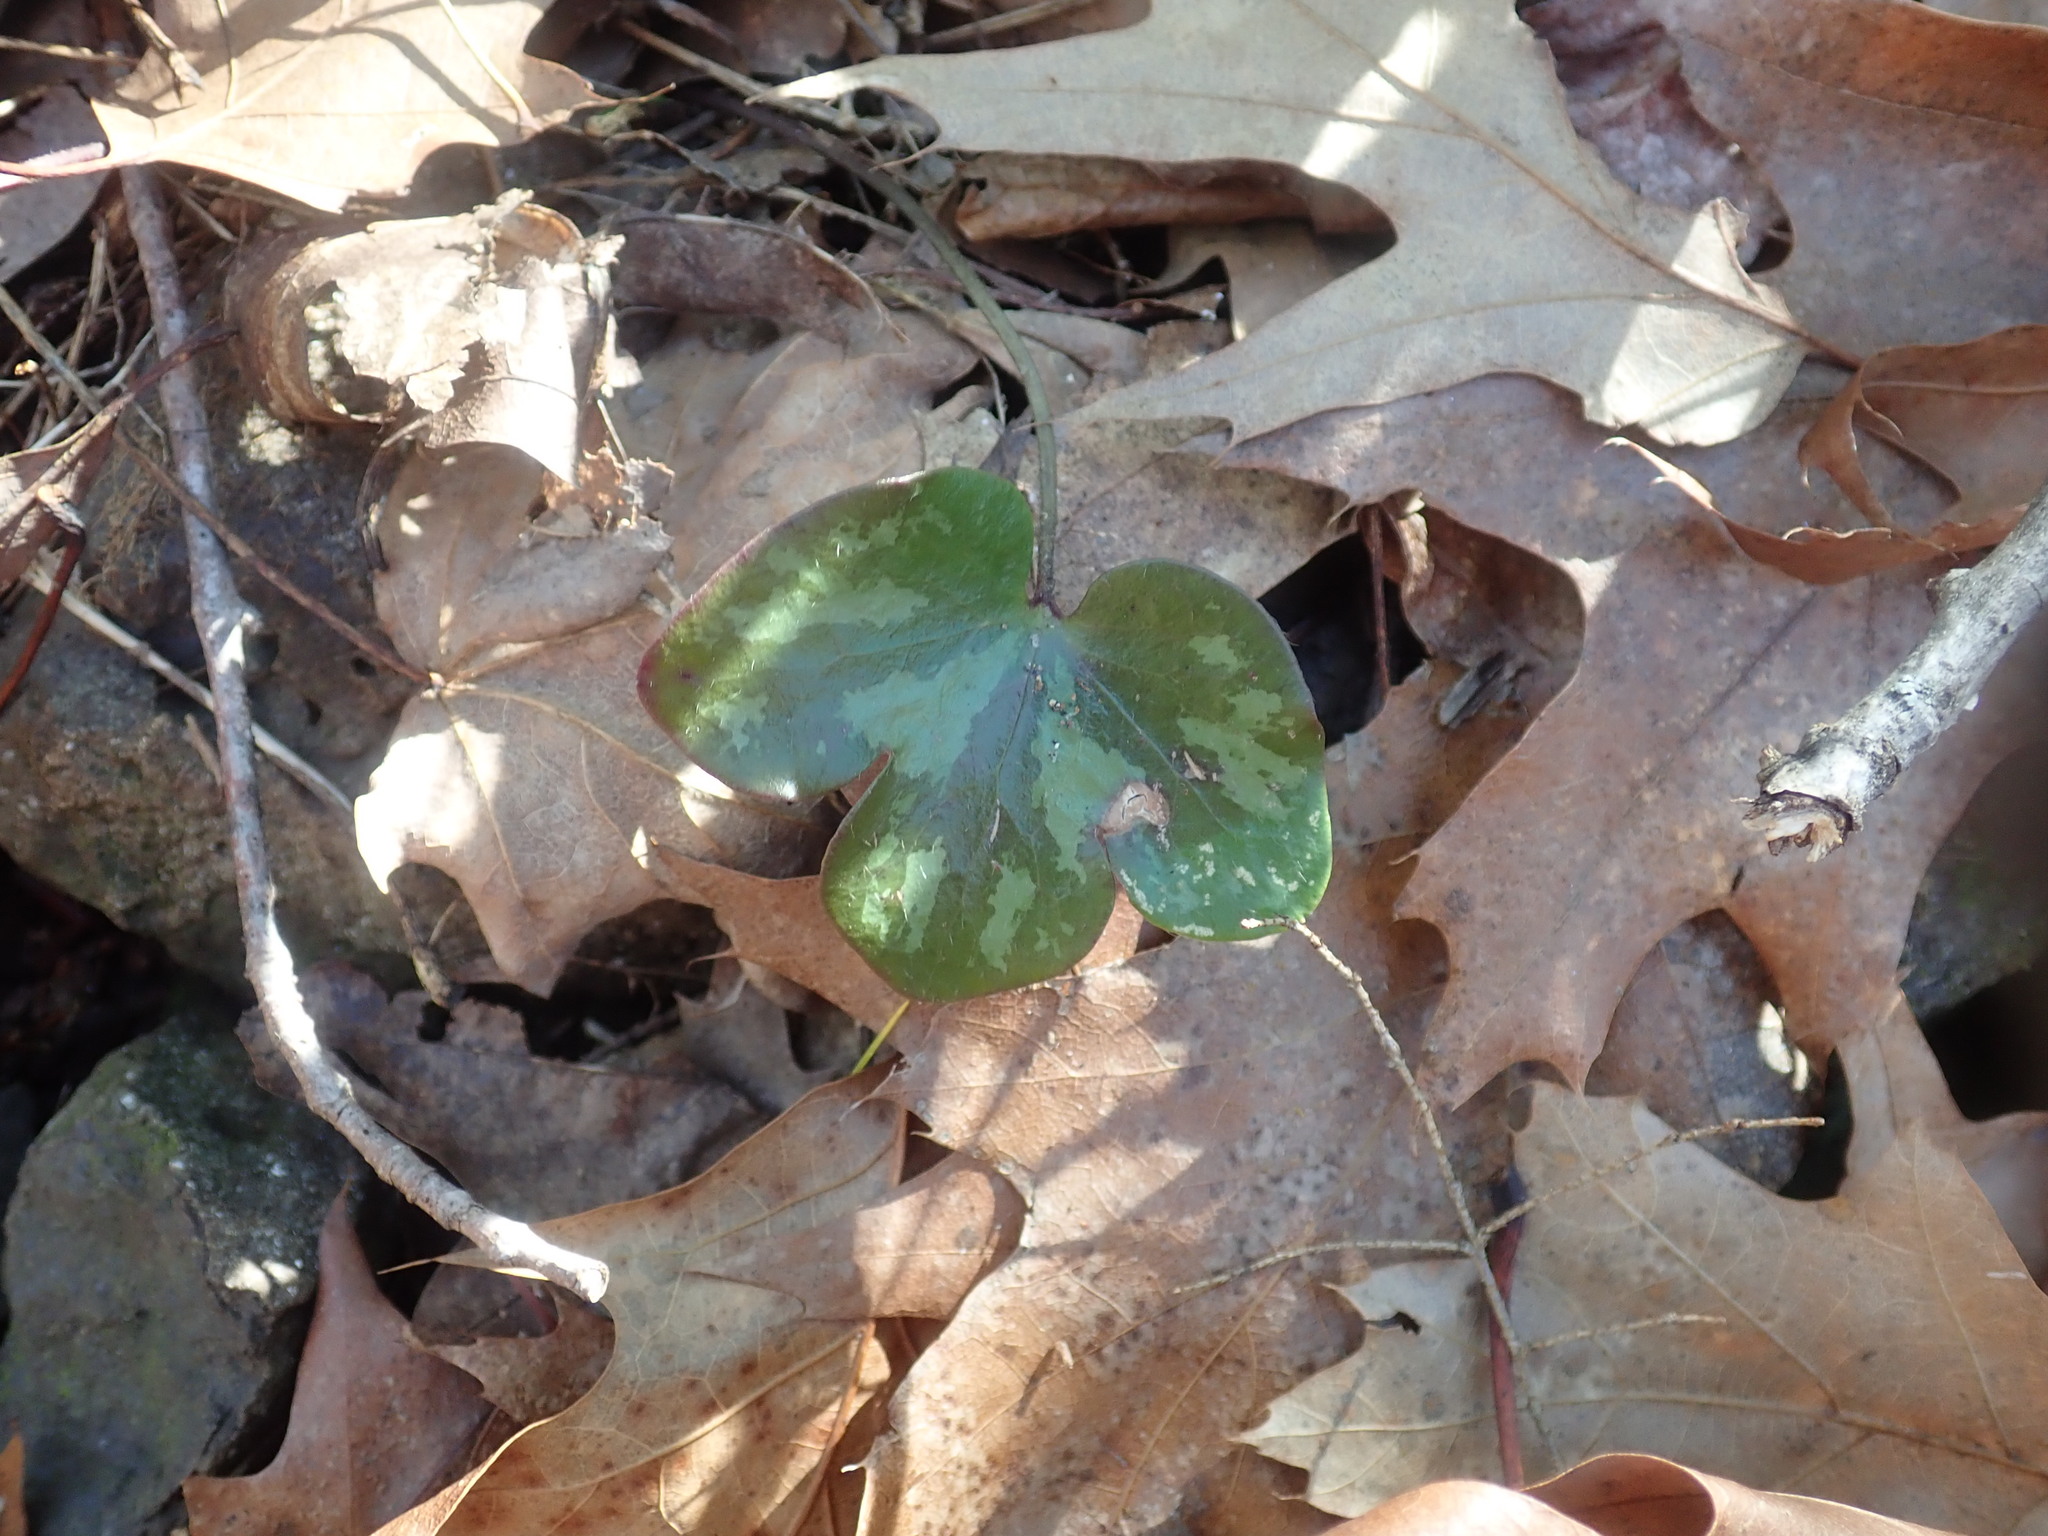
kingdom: Plantae
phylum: Tracheophyta
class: Magnoliopsida
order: Ranunculales
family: Ranunculaceae
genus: Hepatica
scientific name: Hepatica americana
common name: American hepatica
